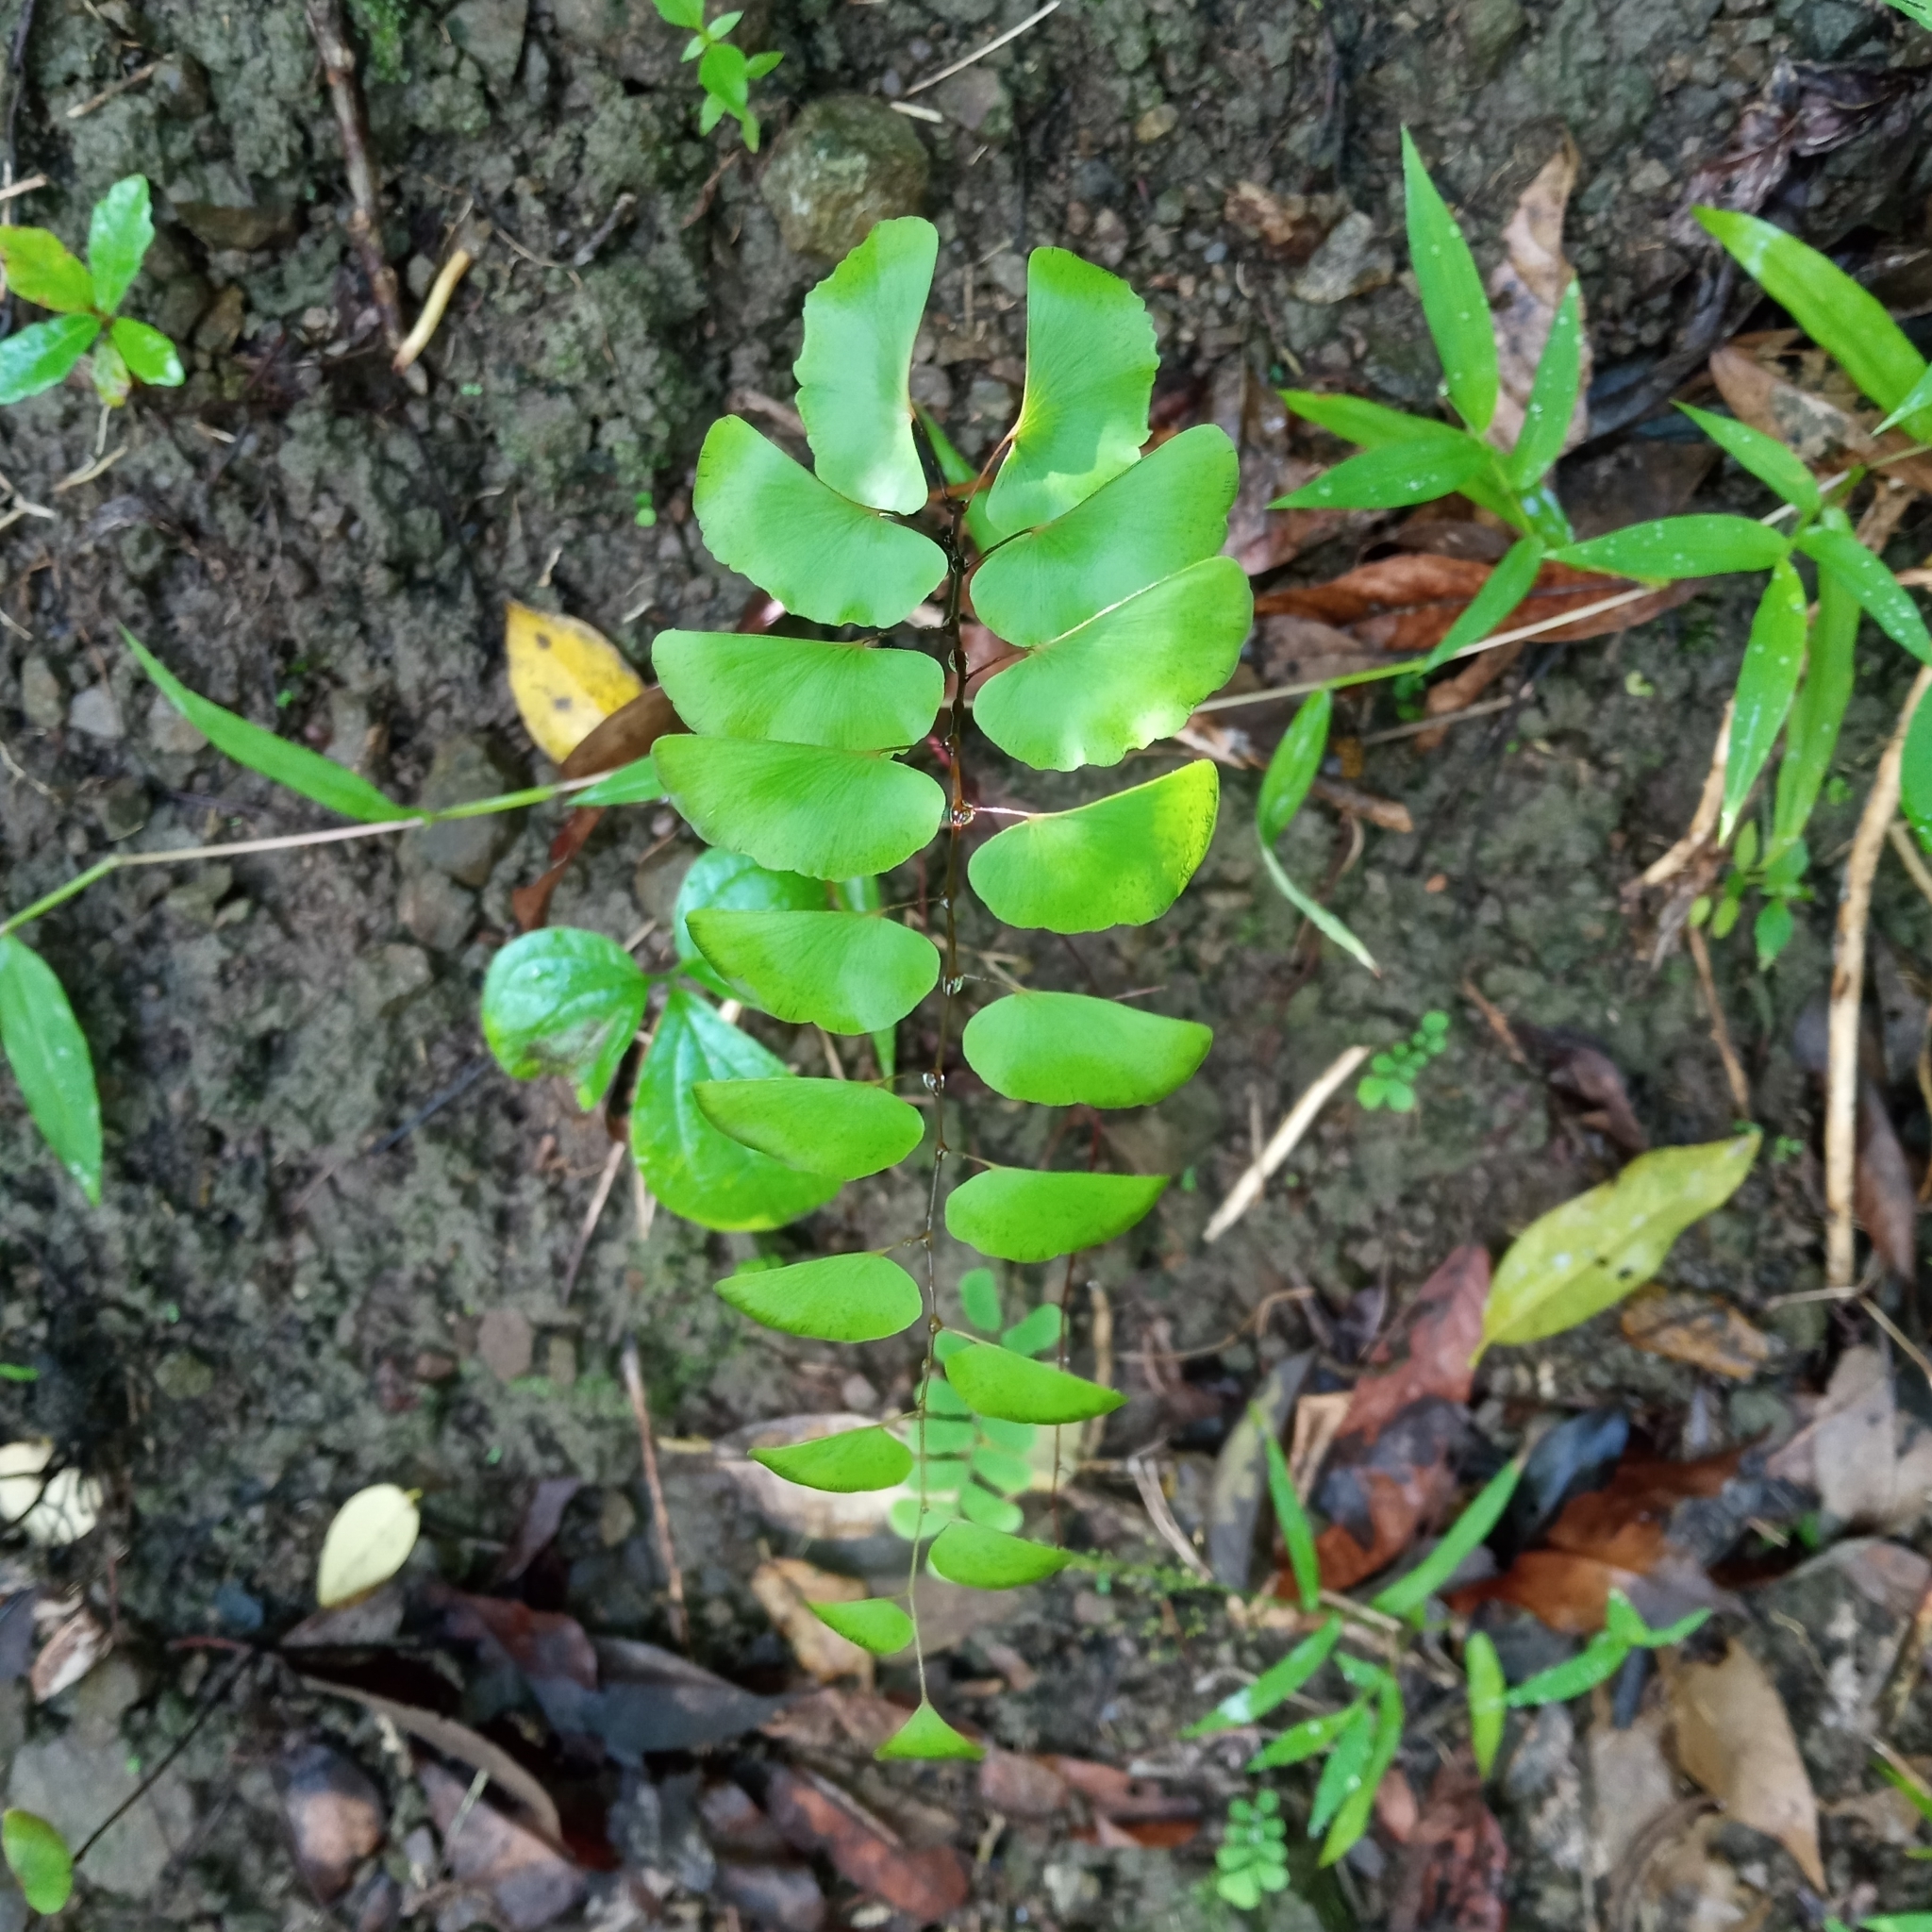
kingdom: Plantae
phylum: Tracheophyta
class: Polypodiopsida
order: Polypodiales
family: Pteridaceae
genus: Adiantum
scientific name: Adiantum philippense
